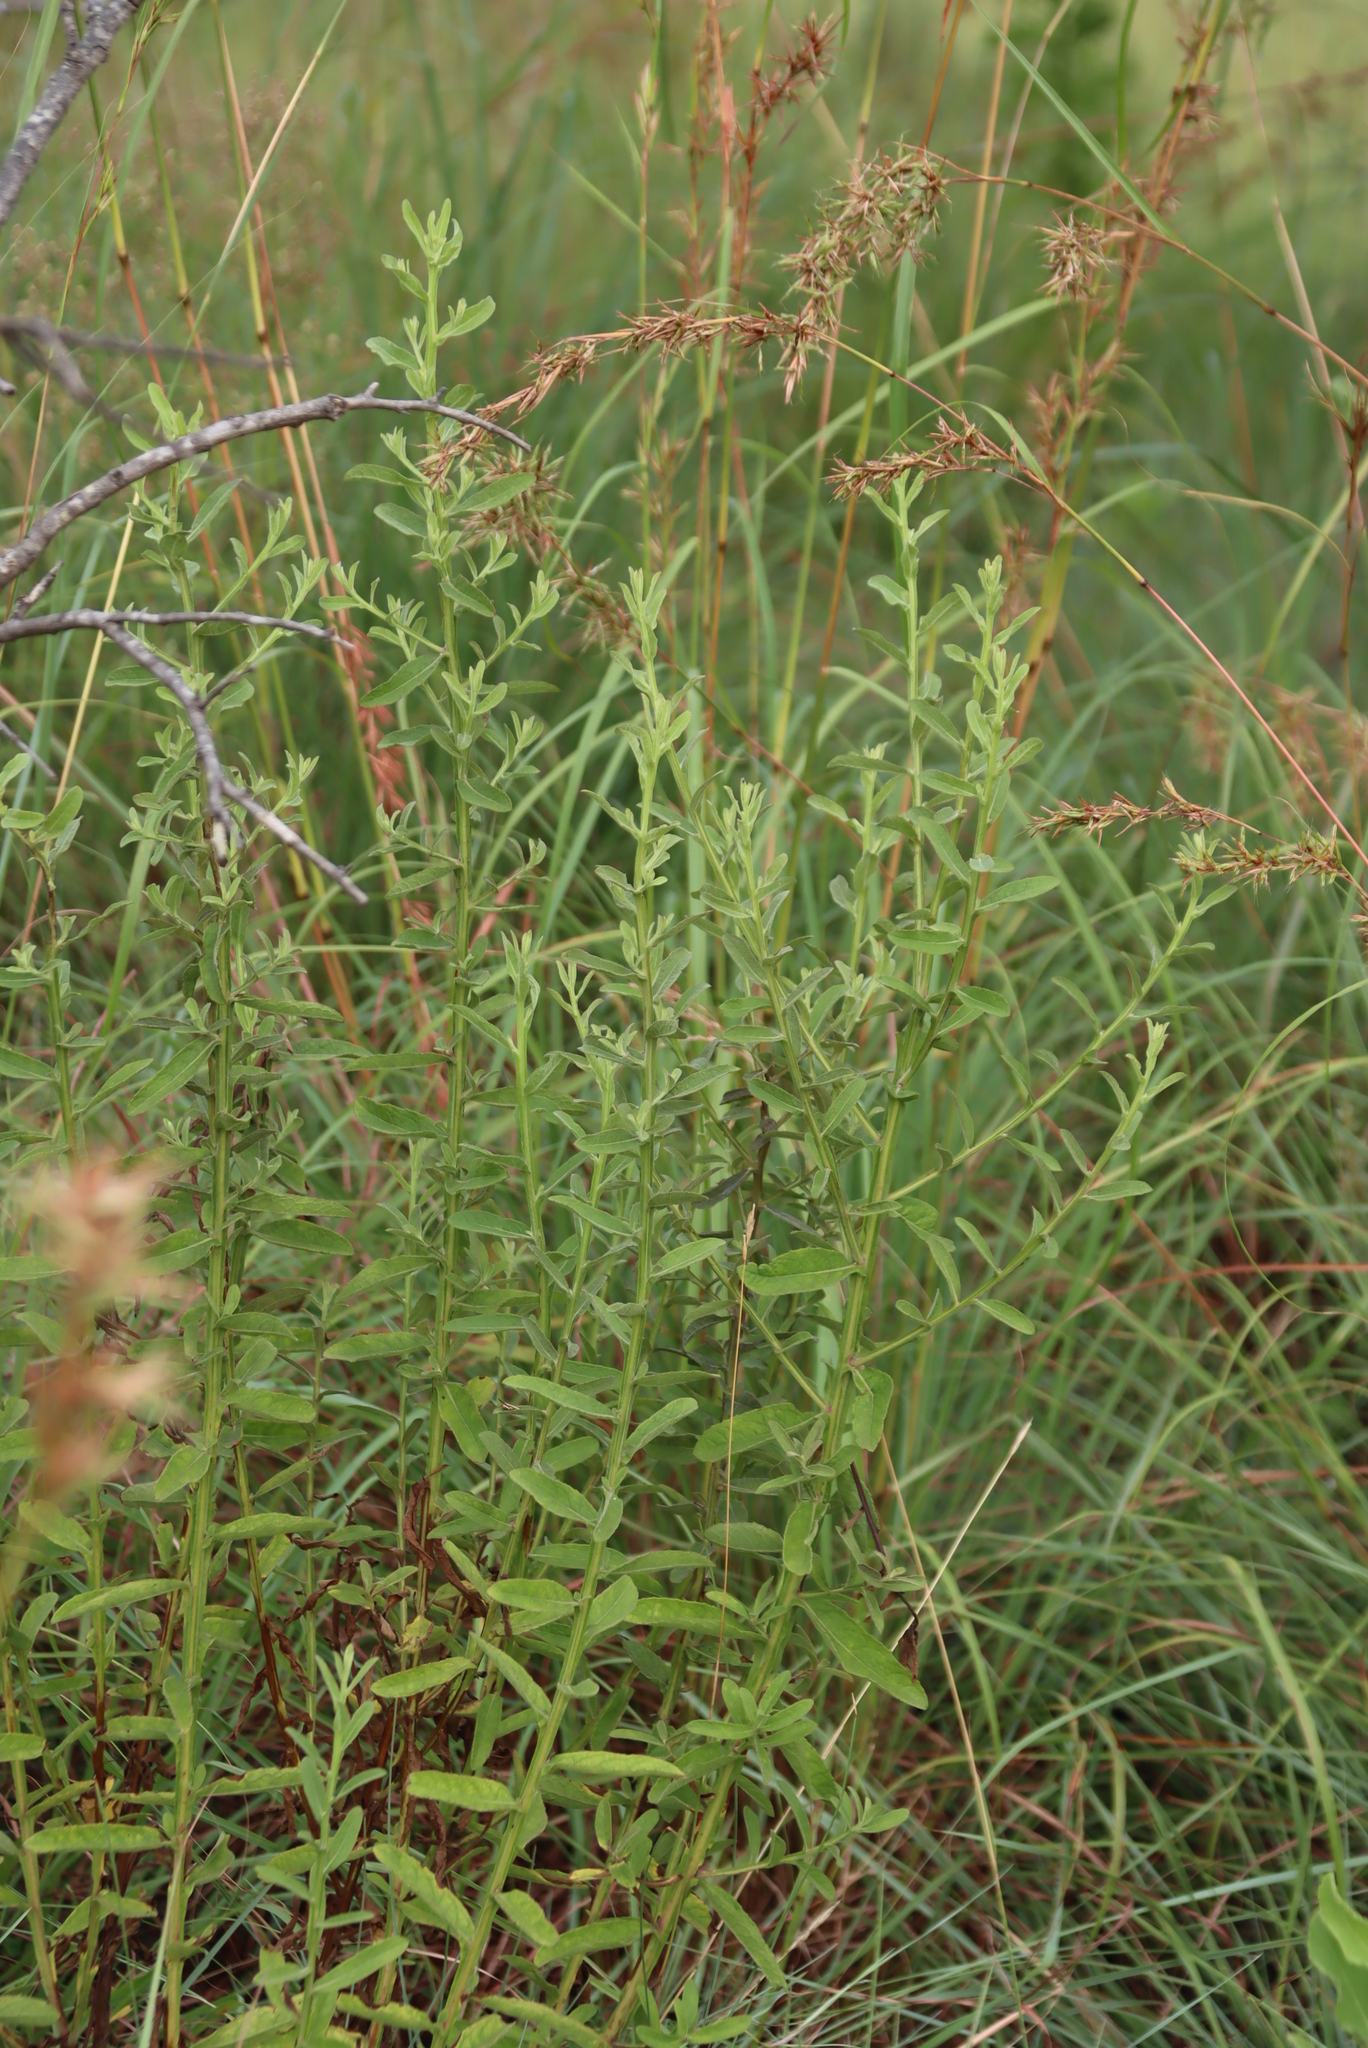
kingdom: Plantae
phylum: Tracheophyta
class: Magnoliopsida
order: Asterales
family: Asteraceae
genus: Laggera
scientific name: Laggera crispata
